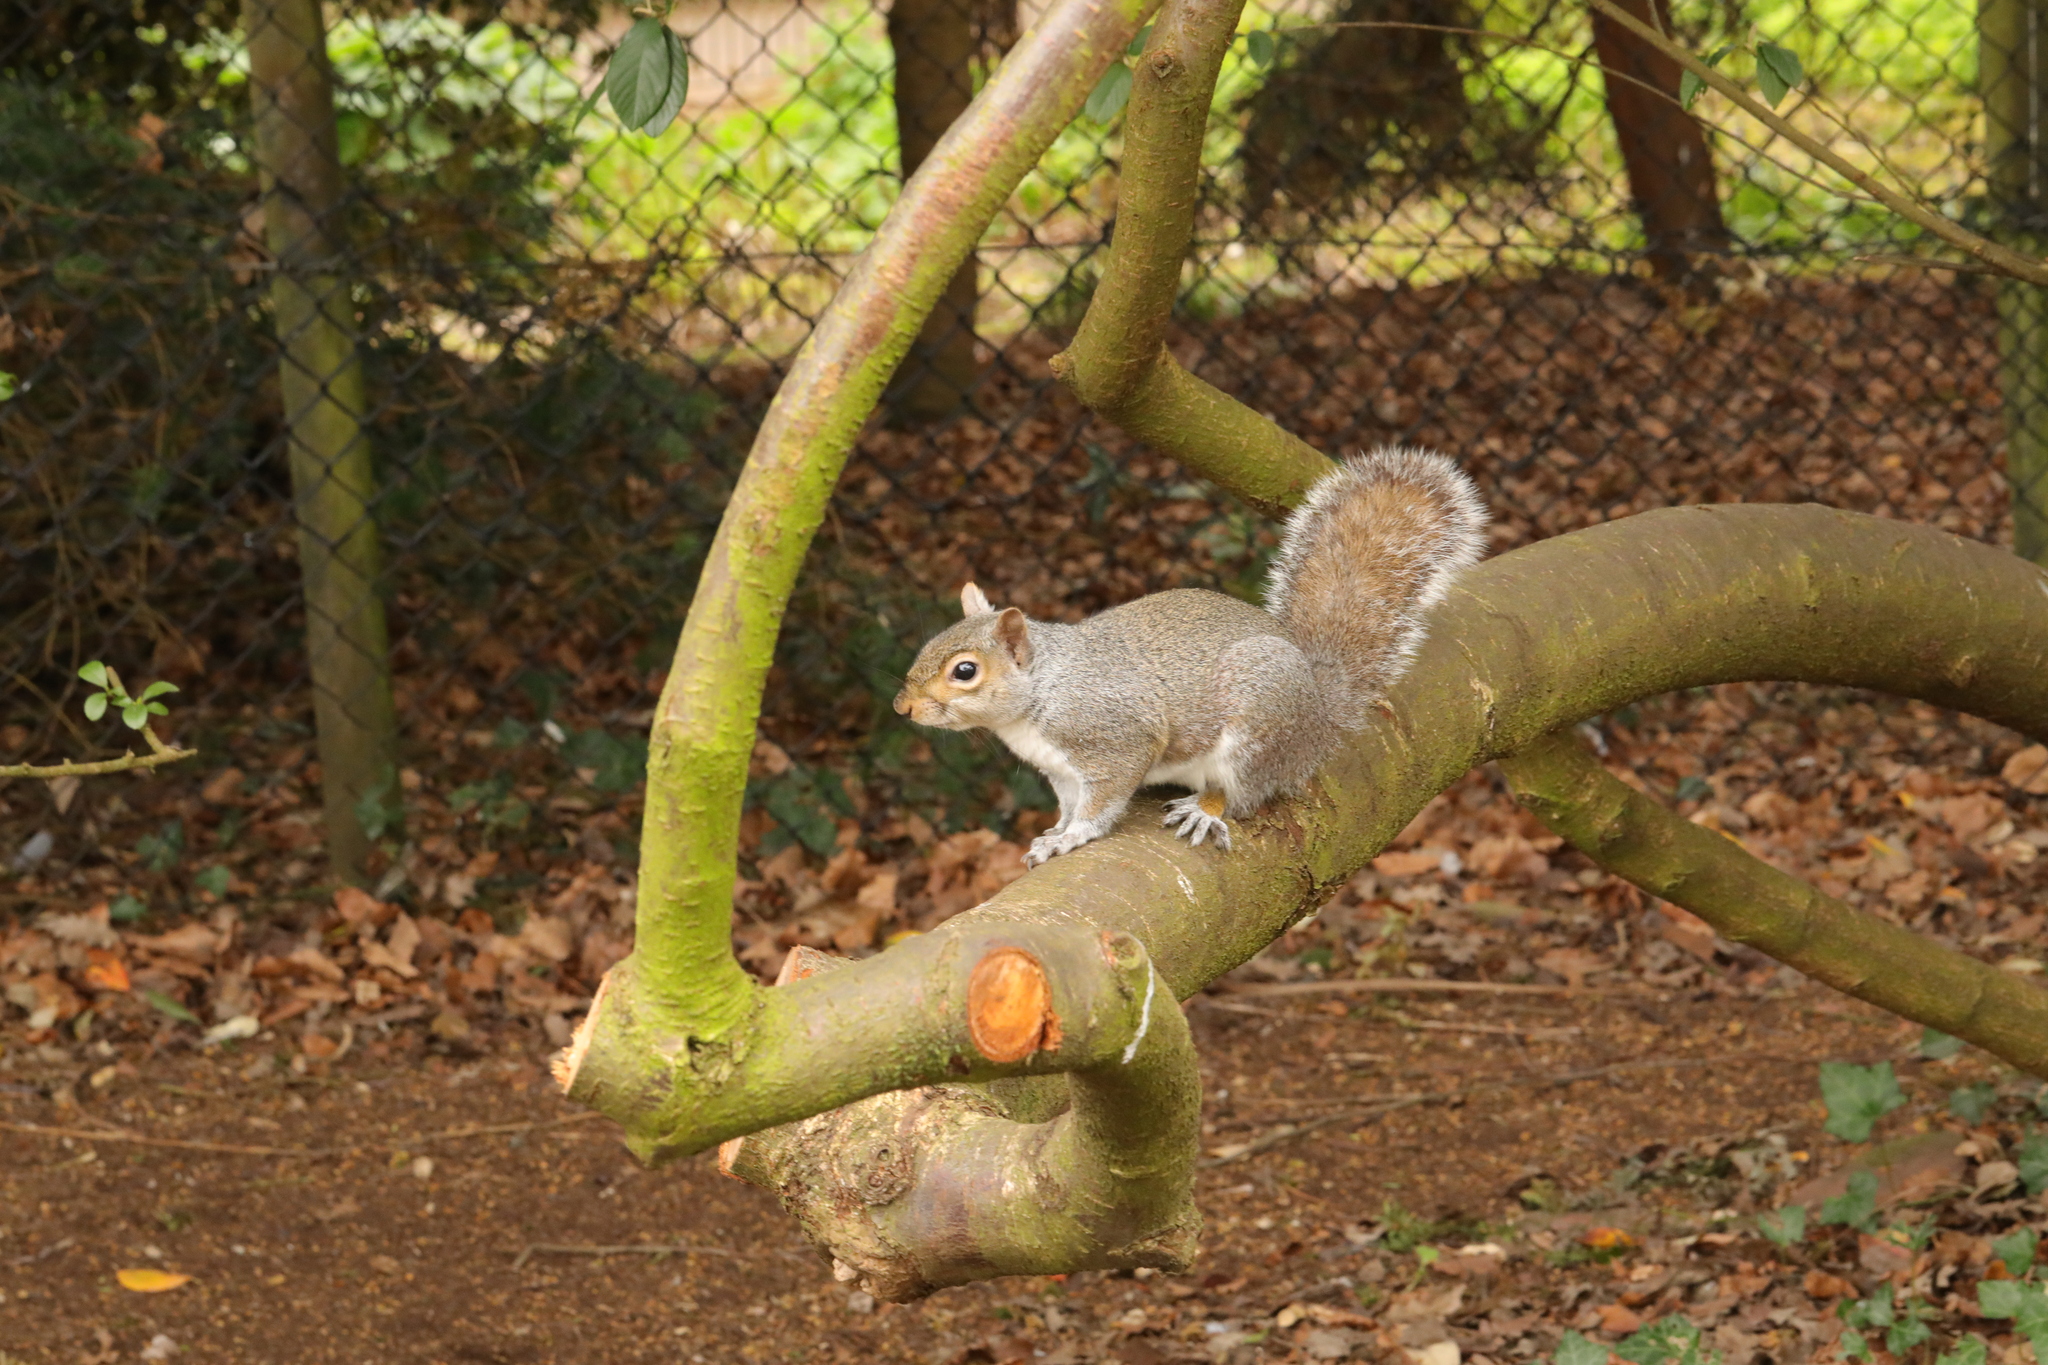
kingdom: Animalia
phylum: Chordata
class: Mammalia
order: Rodentia
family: Sciuridae
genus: Sciurus
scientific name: Sciurus carolinensis
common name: Eastern gray squirrel
